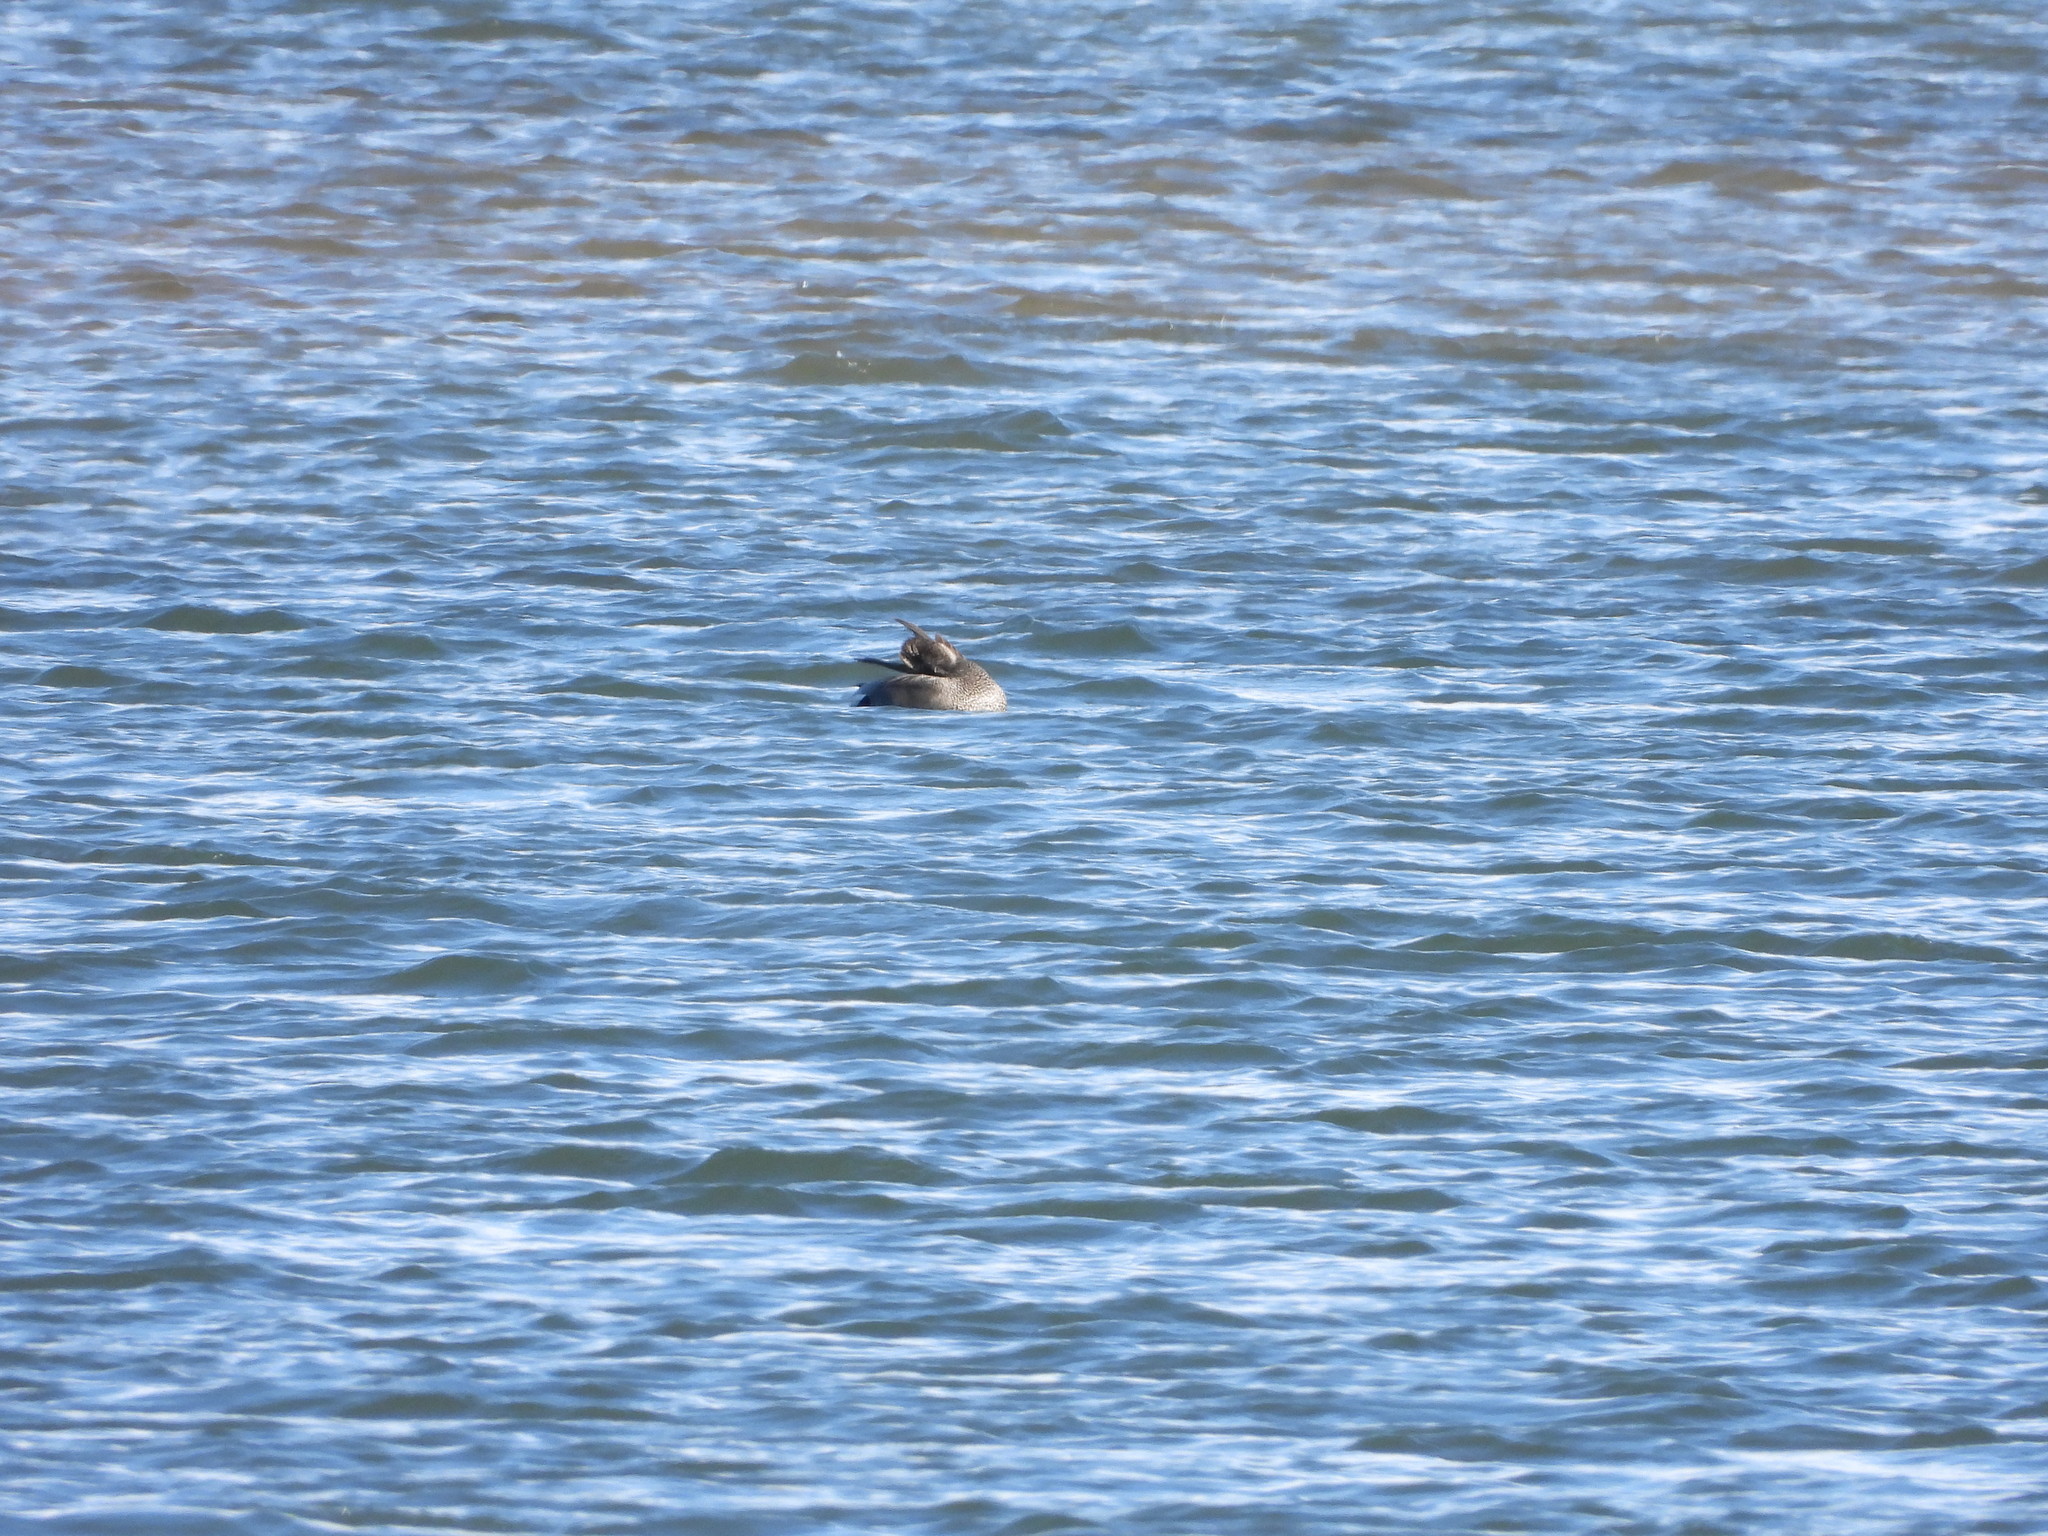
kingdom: Animalia
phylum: Chordata
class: Aves
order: Anseriformes
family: Anatidae
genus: Mareca
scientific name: Mareca strepera
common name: Gadwall
